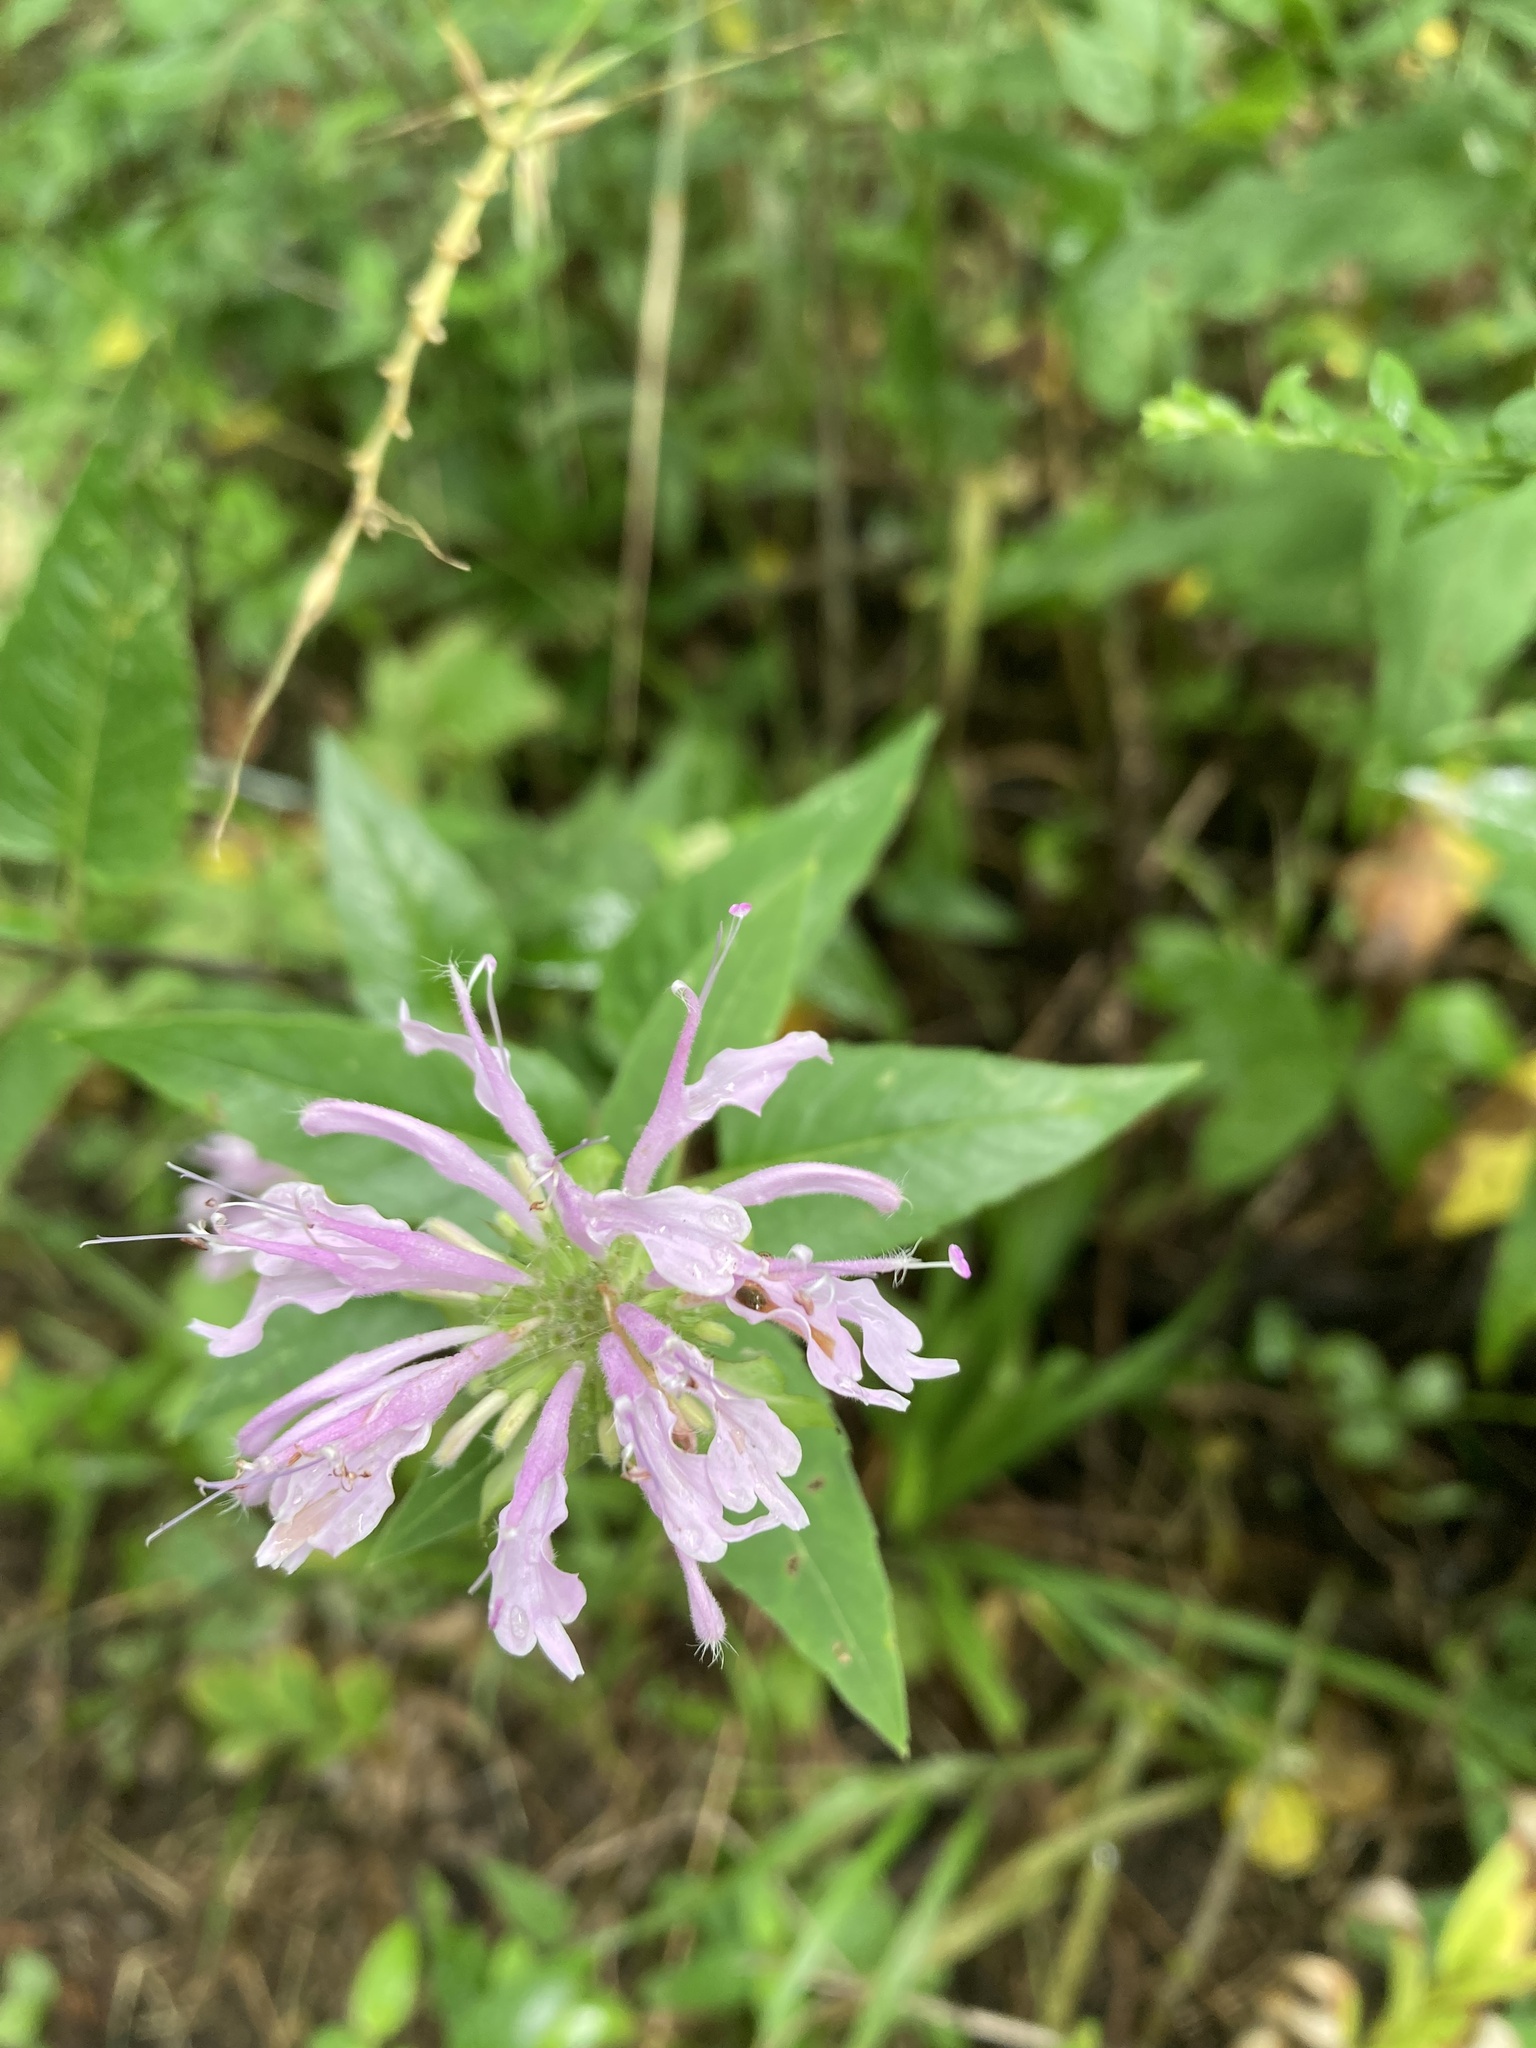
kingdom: Plantae
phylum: Tracheophyta
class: Magnoliopsida
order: Lamiales
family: Lamiaceae
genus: Monarda
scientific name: Monarda fistulosa
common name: Purple beebalm
